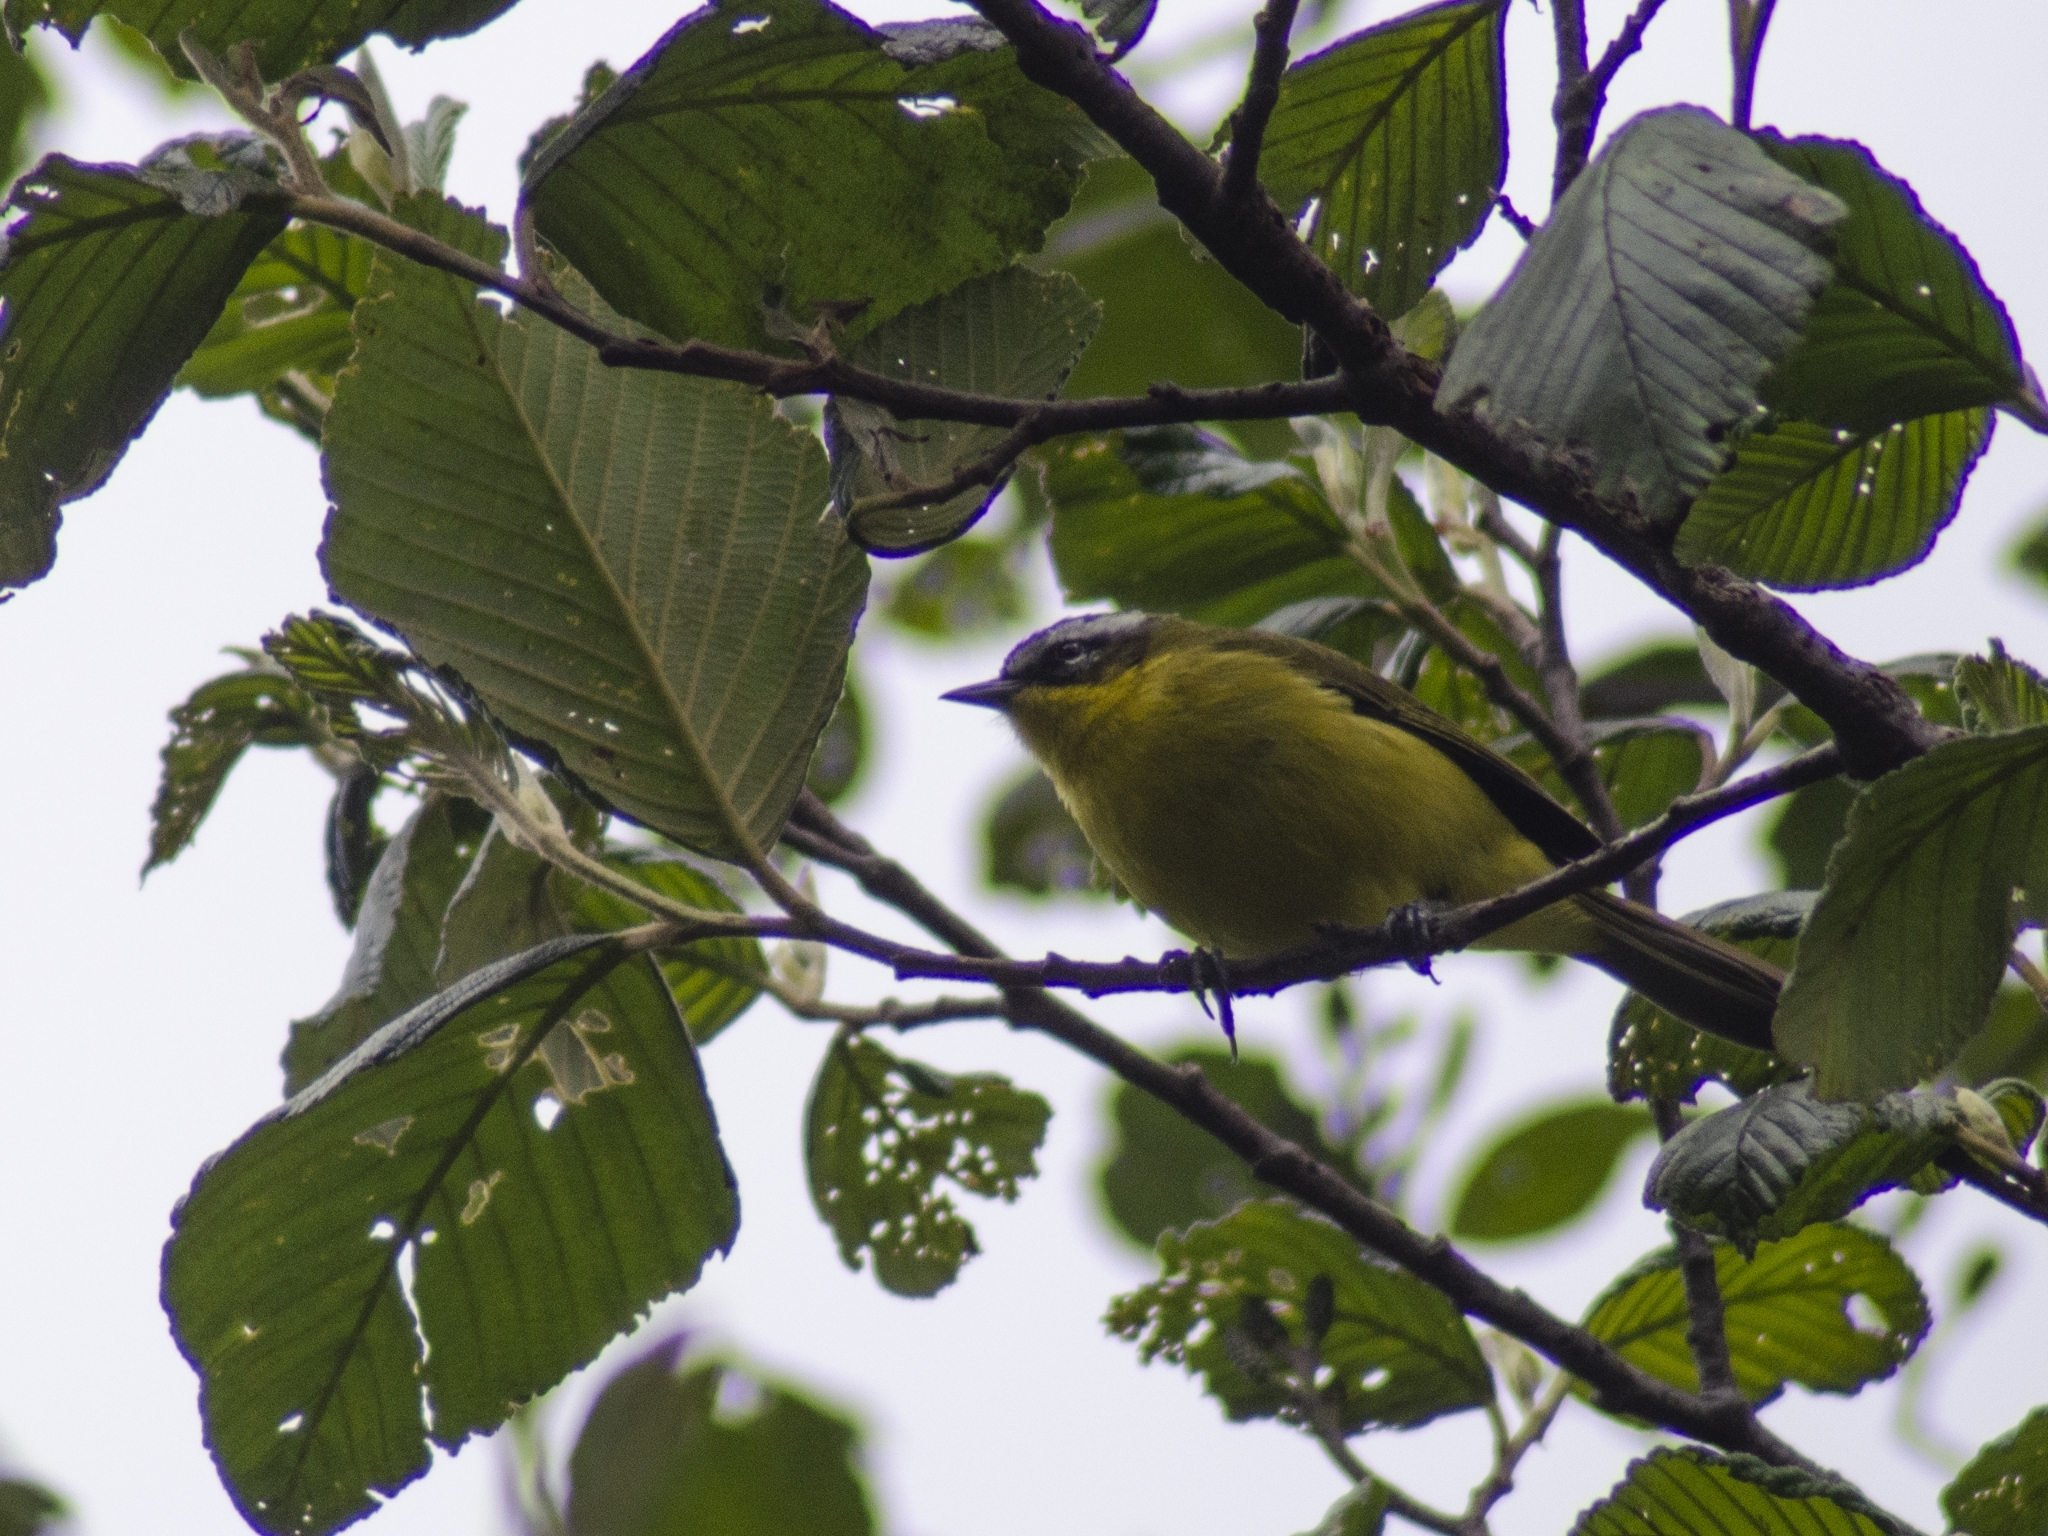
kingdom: Animalia
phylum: Chordata
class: Aves
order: Passeriformes
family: Thraupidae
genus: Thlypopsis
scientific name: Thlypopsis superciliaris
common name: Superciliaried hemispingus
